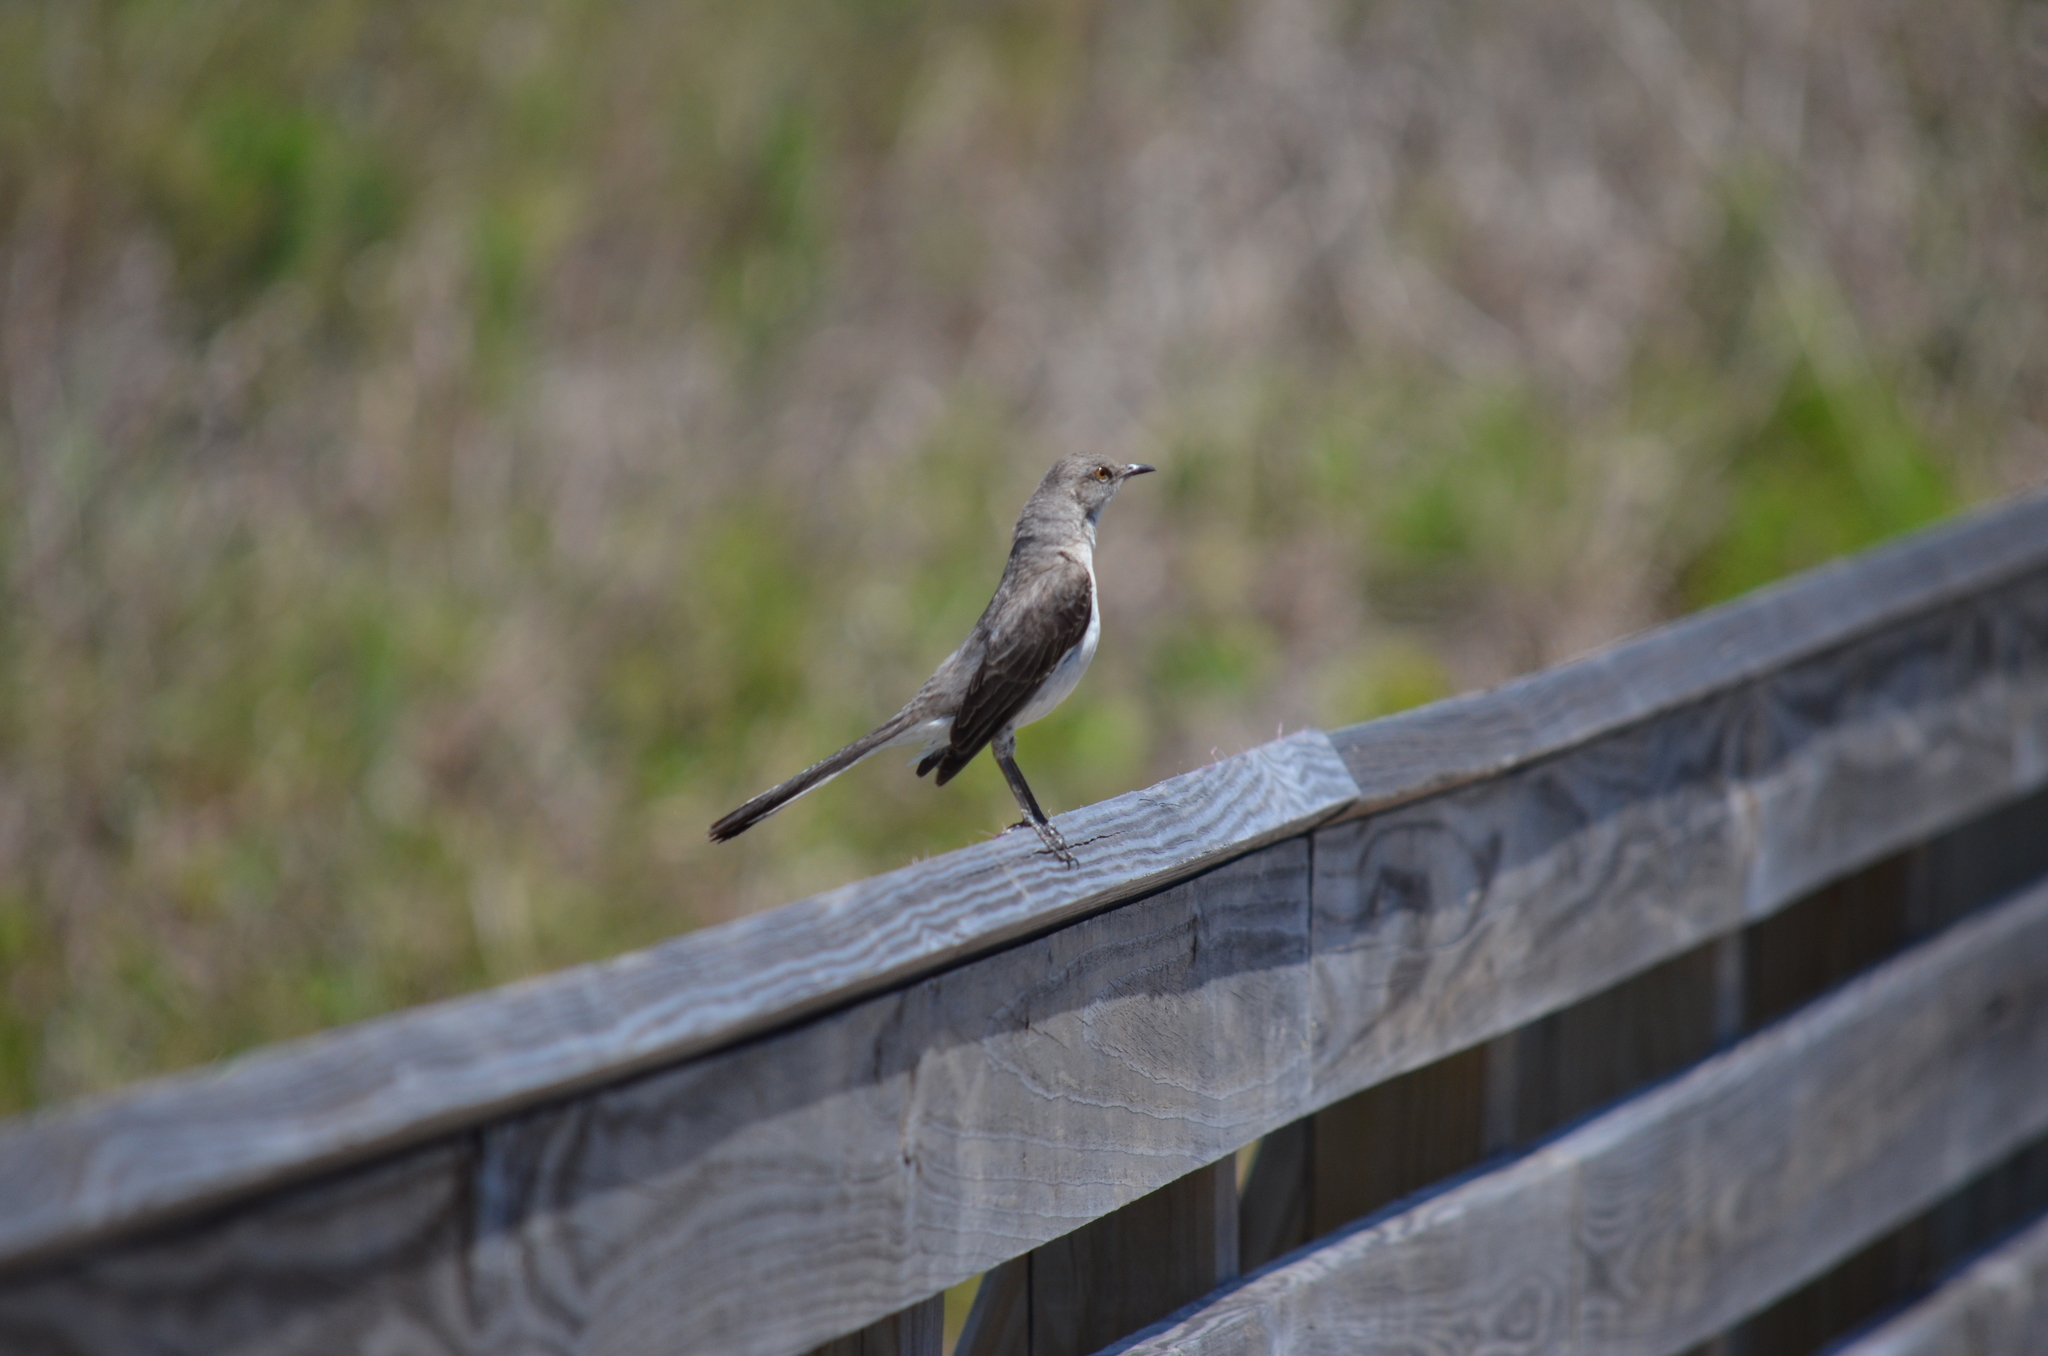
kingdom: Animalia
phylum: Chordata
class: Aves
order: Passeriformes
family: Mimidae
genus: Mimus
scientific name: Mimus polyglottos
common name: Northern mockingbird
